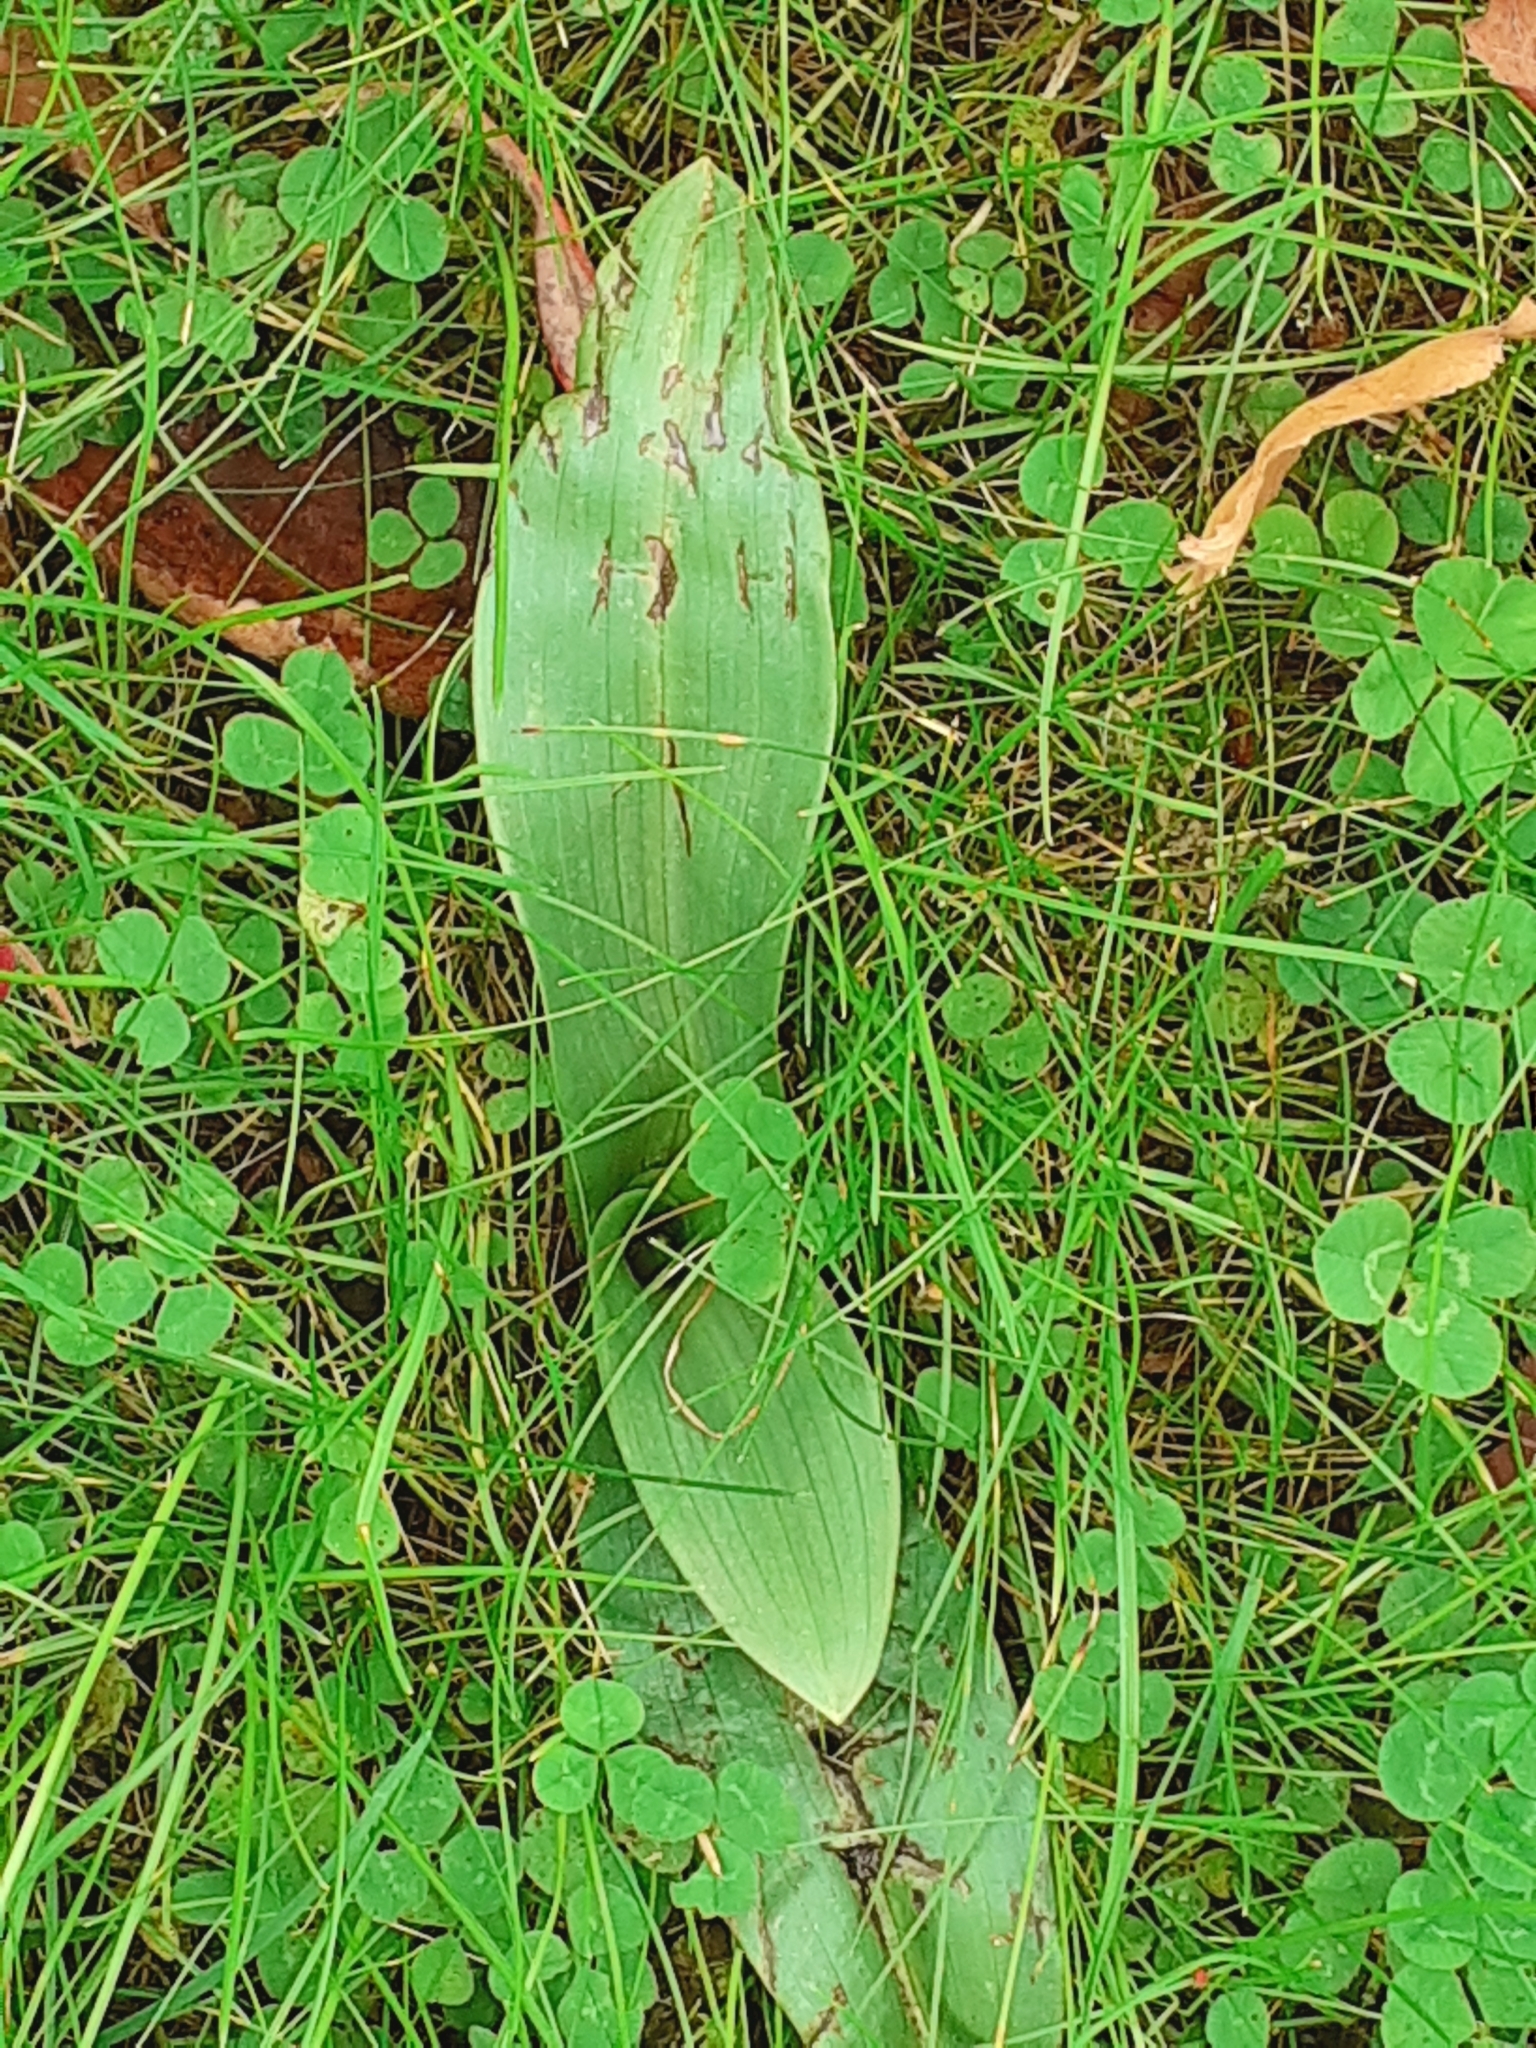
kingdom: Plantae
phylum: Tracheophyta
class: Liliopsida
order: Asparagales
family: Orchidaceae
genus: Ophrys
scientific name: Ophrys apifera
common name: Bee orchid
